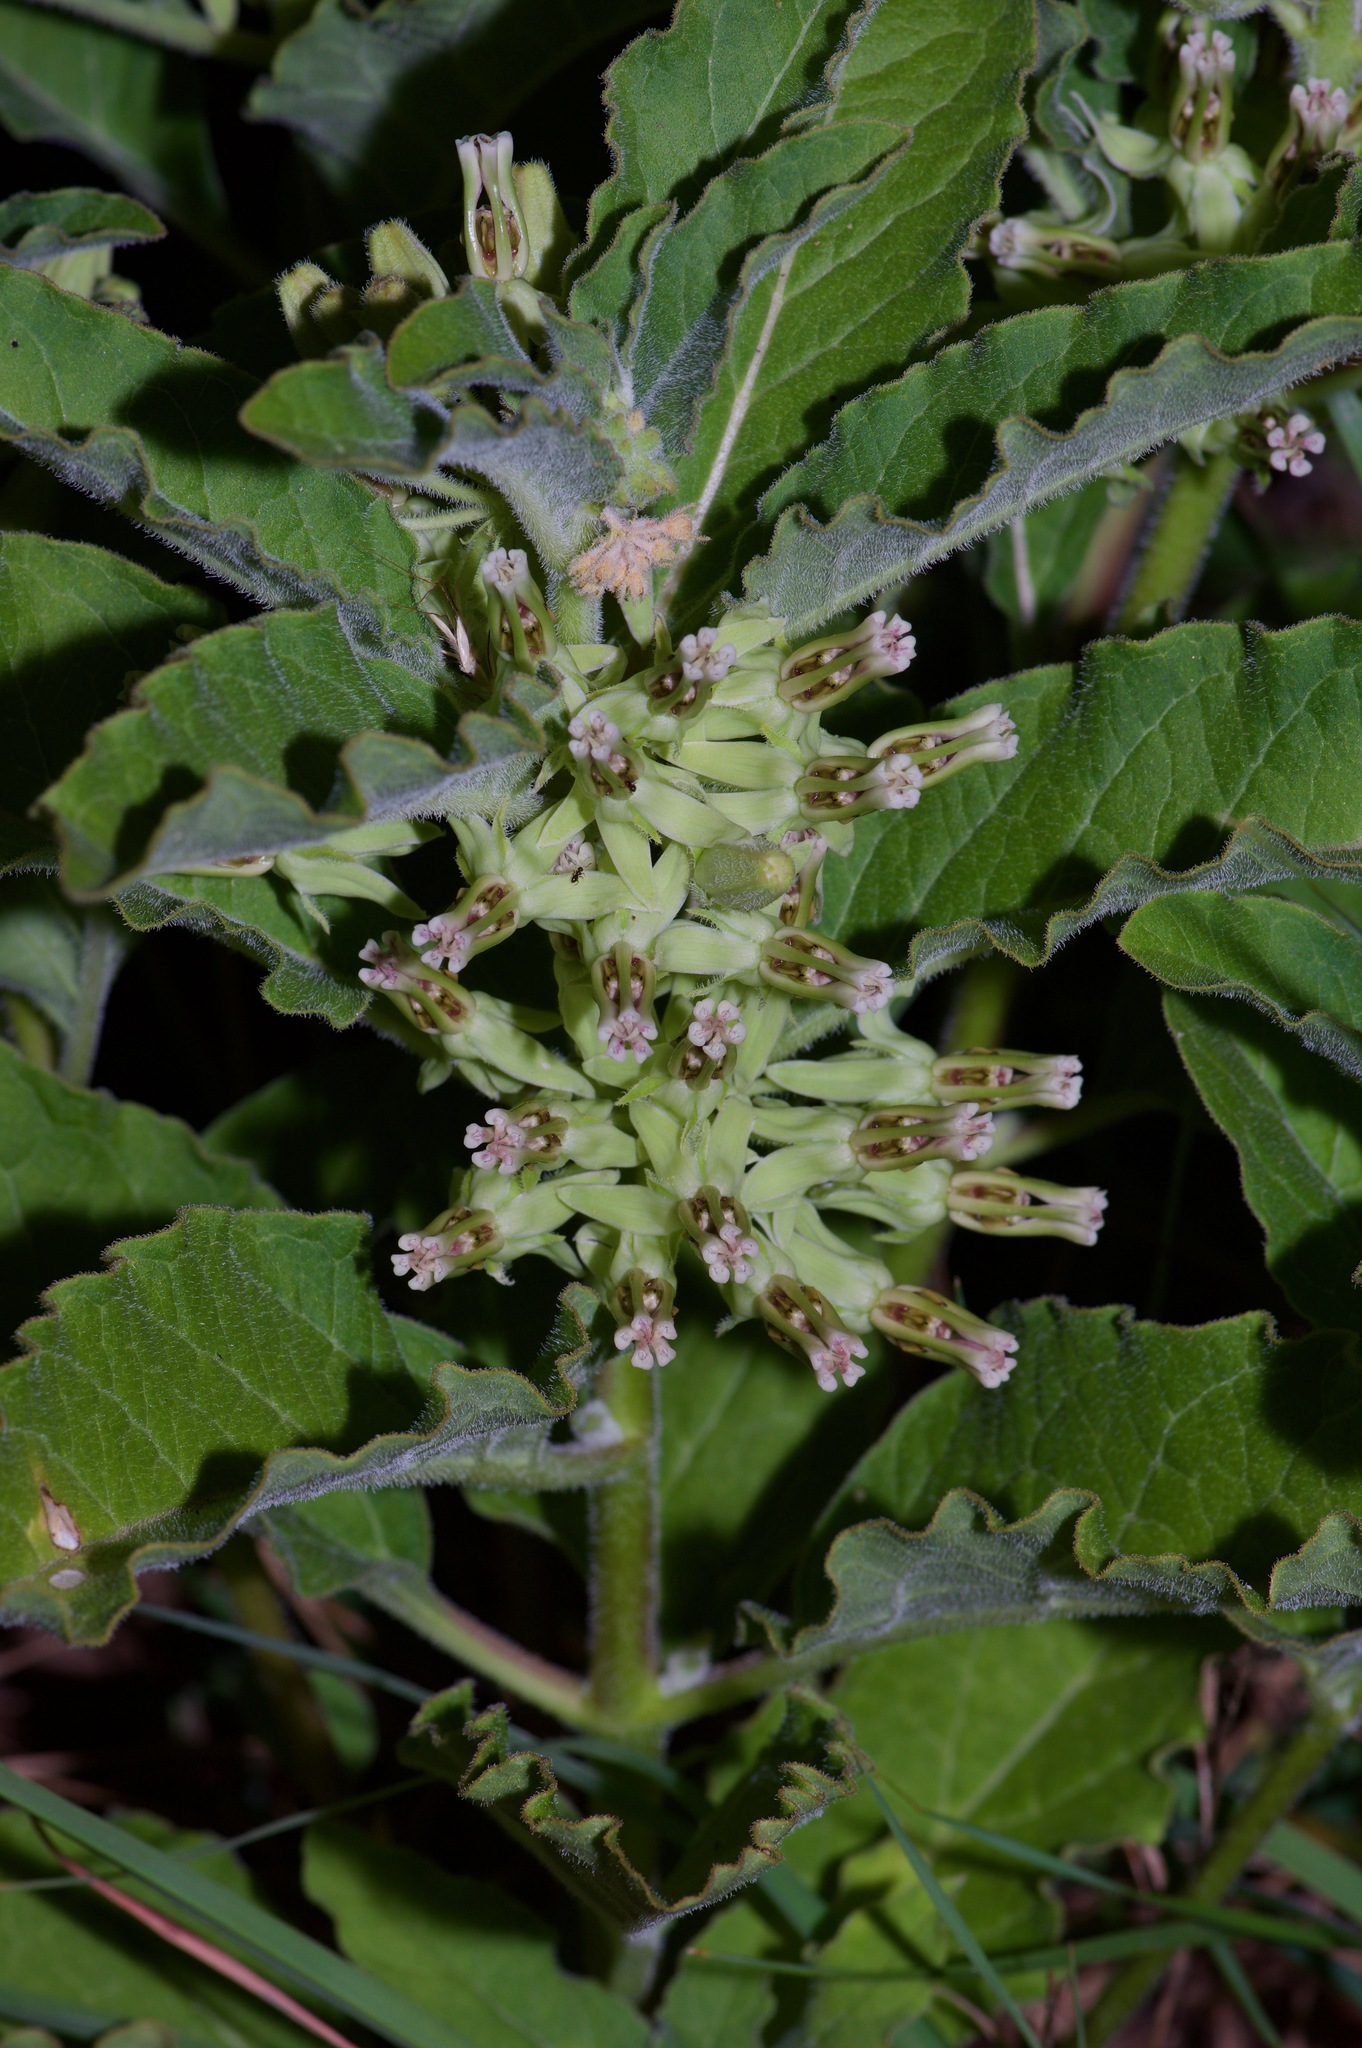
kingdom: Plantae
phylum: Tracheophyta
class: Magnoliopsida
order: Gentianales
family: Apocynaceae
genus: Asclepias
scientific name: Asclepias oenotheroides
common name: Zizotes milkweed
